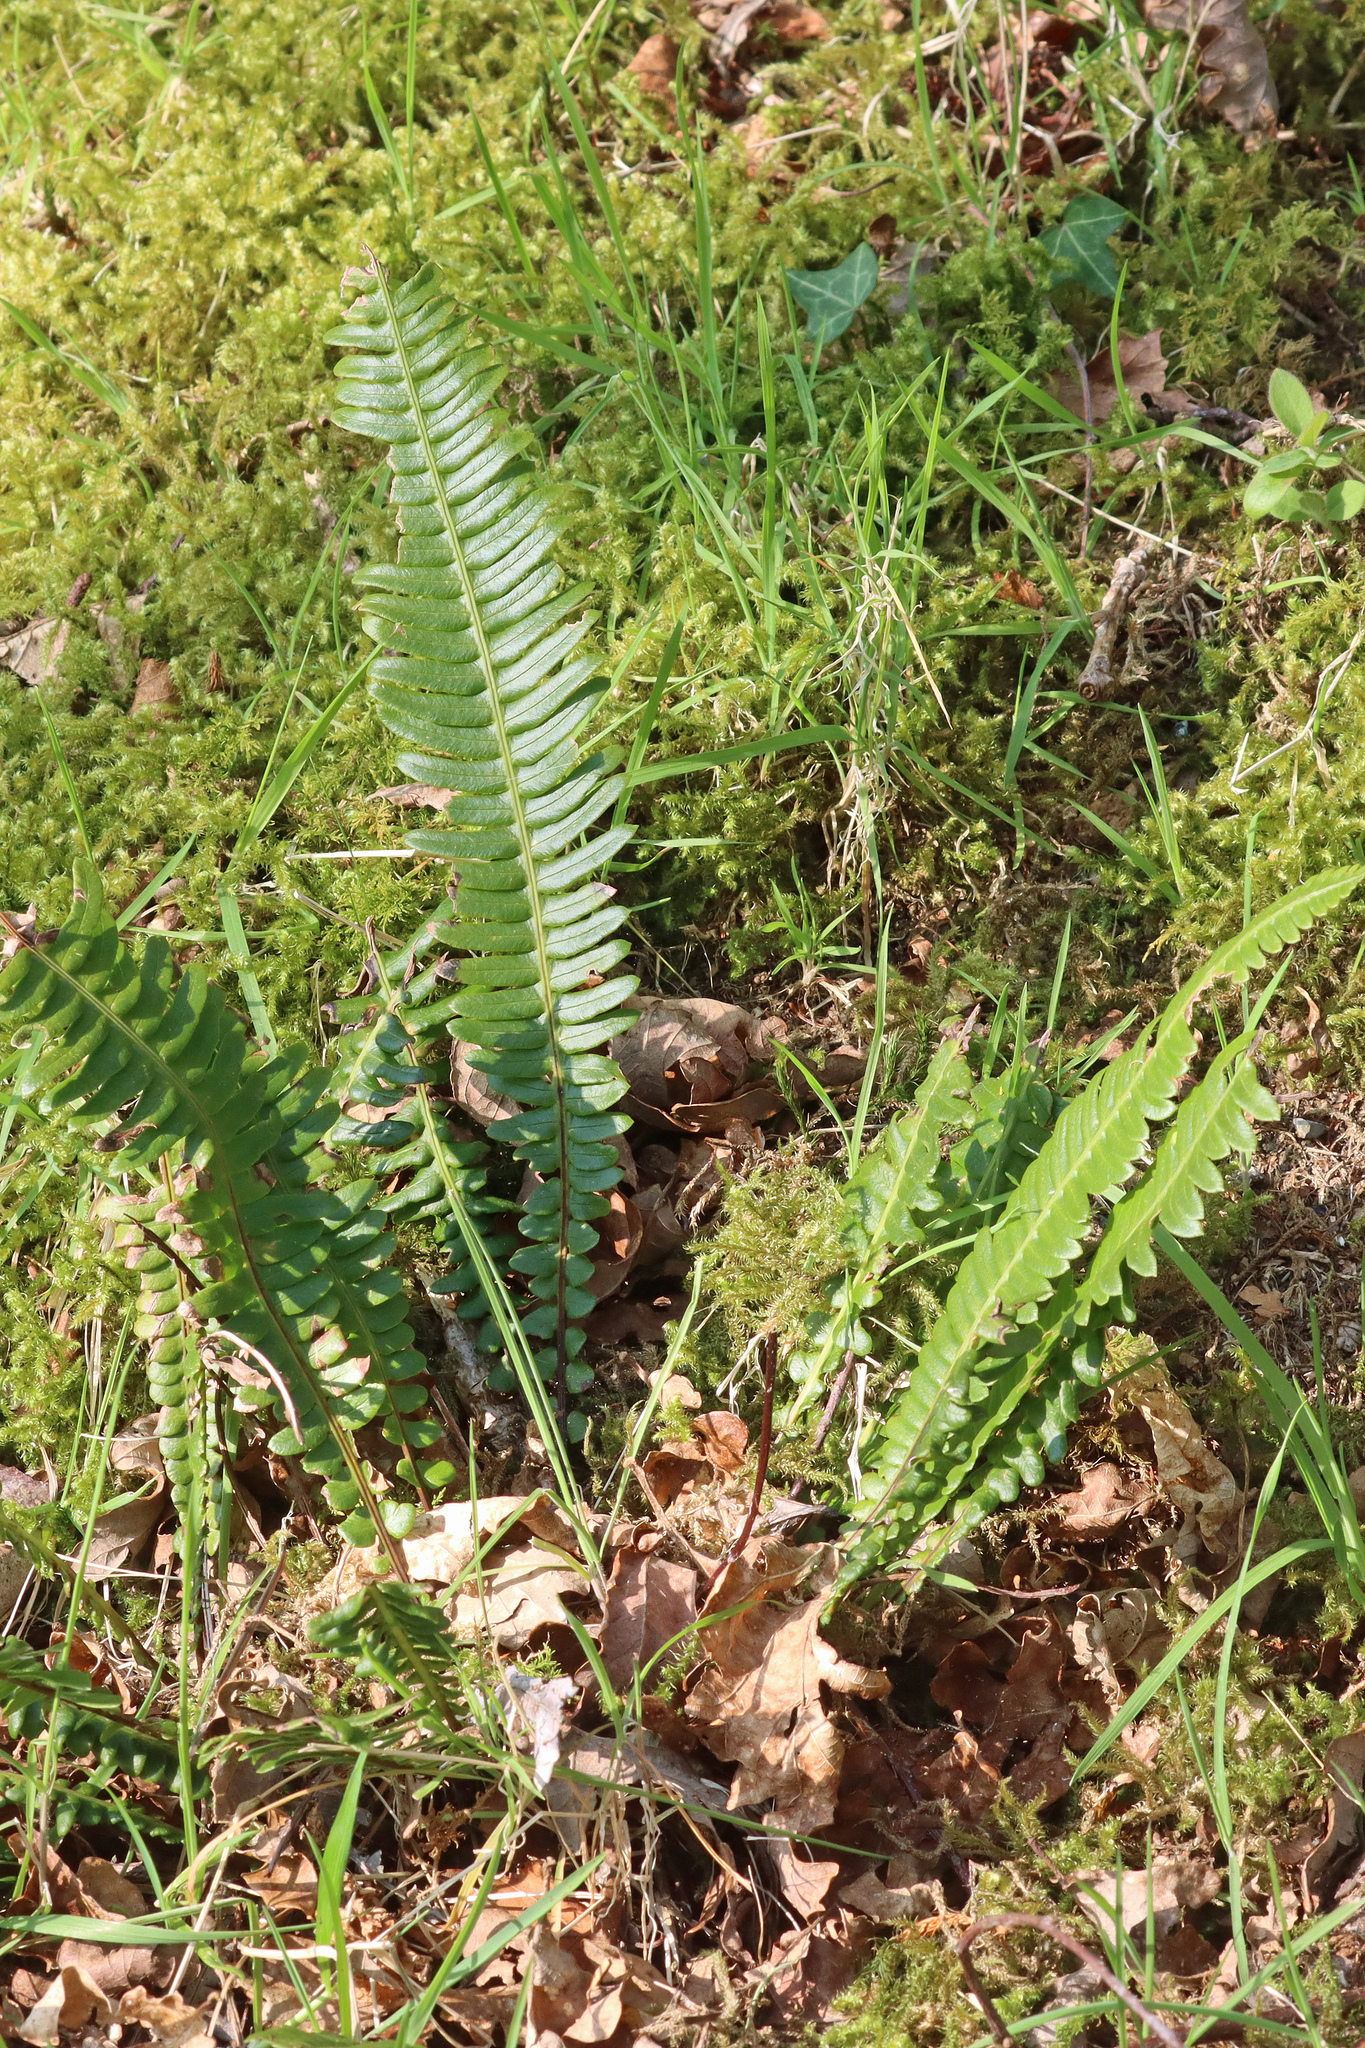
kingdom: Plantae
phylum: Tracheophyta
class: Polypodiopsida
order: Polypodiales
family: Blechnaceae
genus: Struthiopteris
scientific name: Struthiopteris spicant
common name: Deer fern
